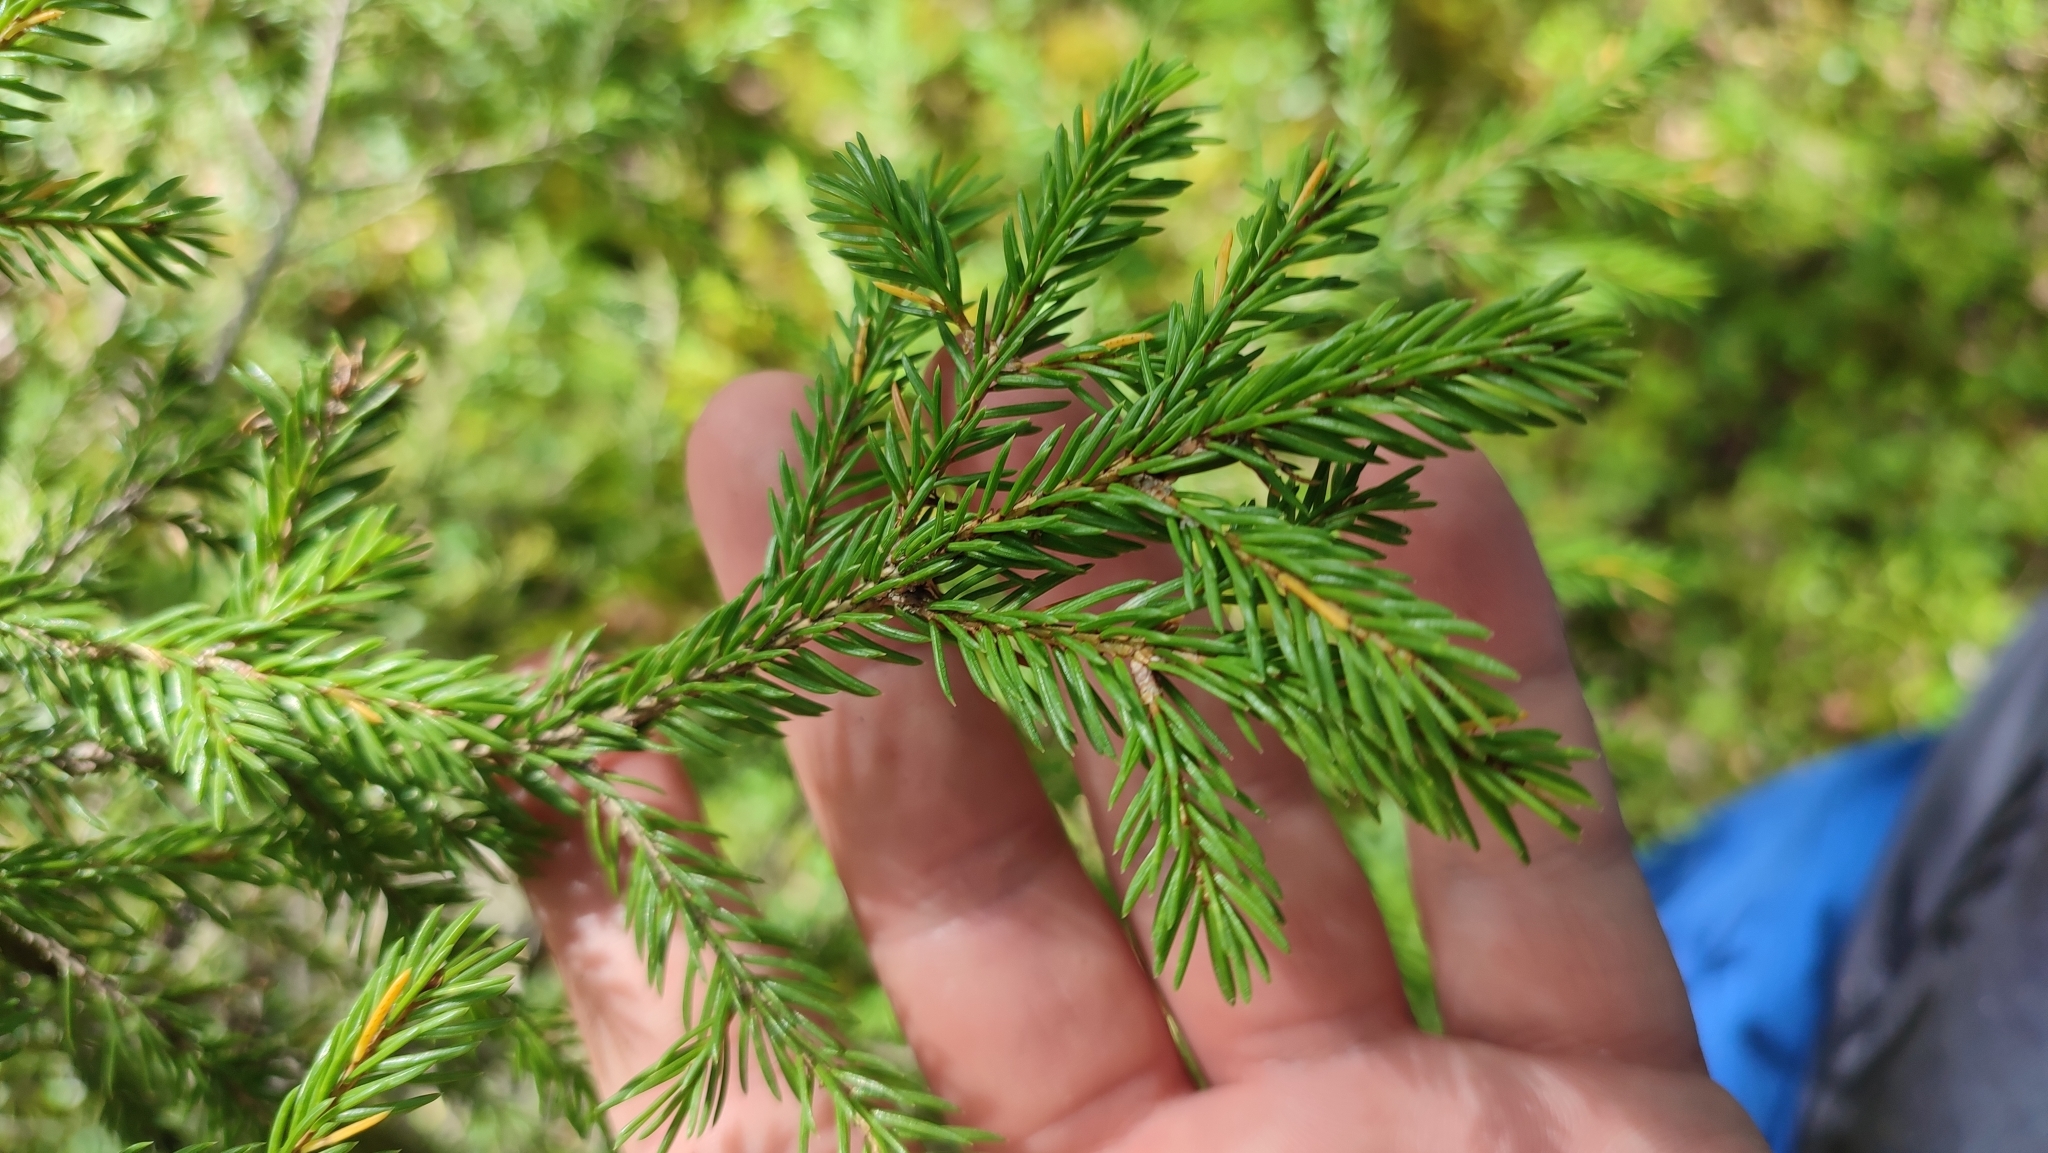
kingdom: Plantae
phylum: Tracheophyta
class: Pinopsida
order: Pinales
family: Pinaceae
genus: Picea
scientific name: Picea obovata
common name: Siberian spruce
